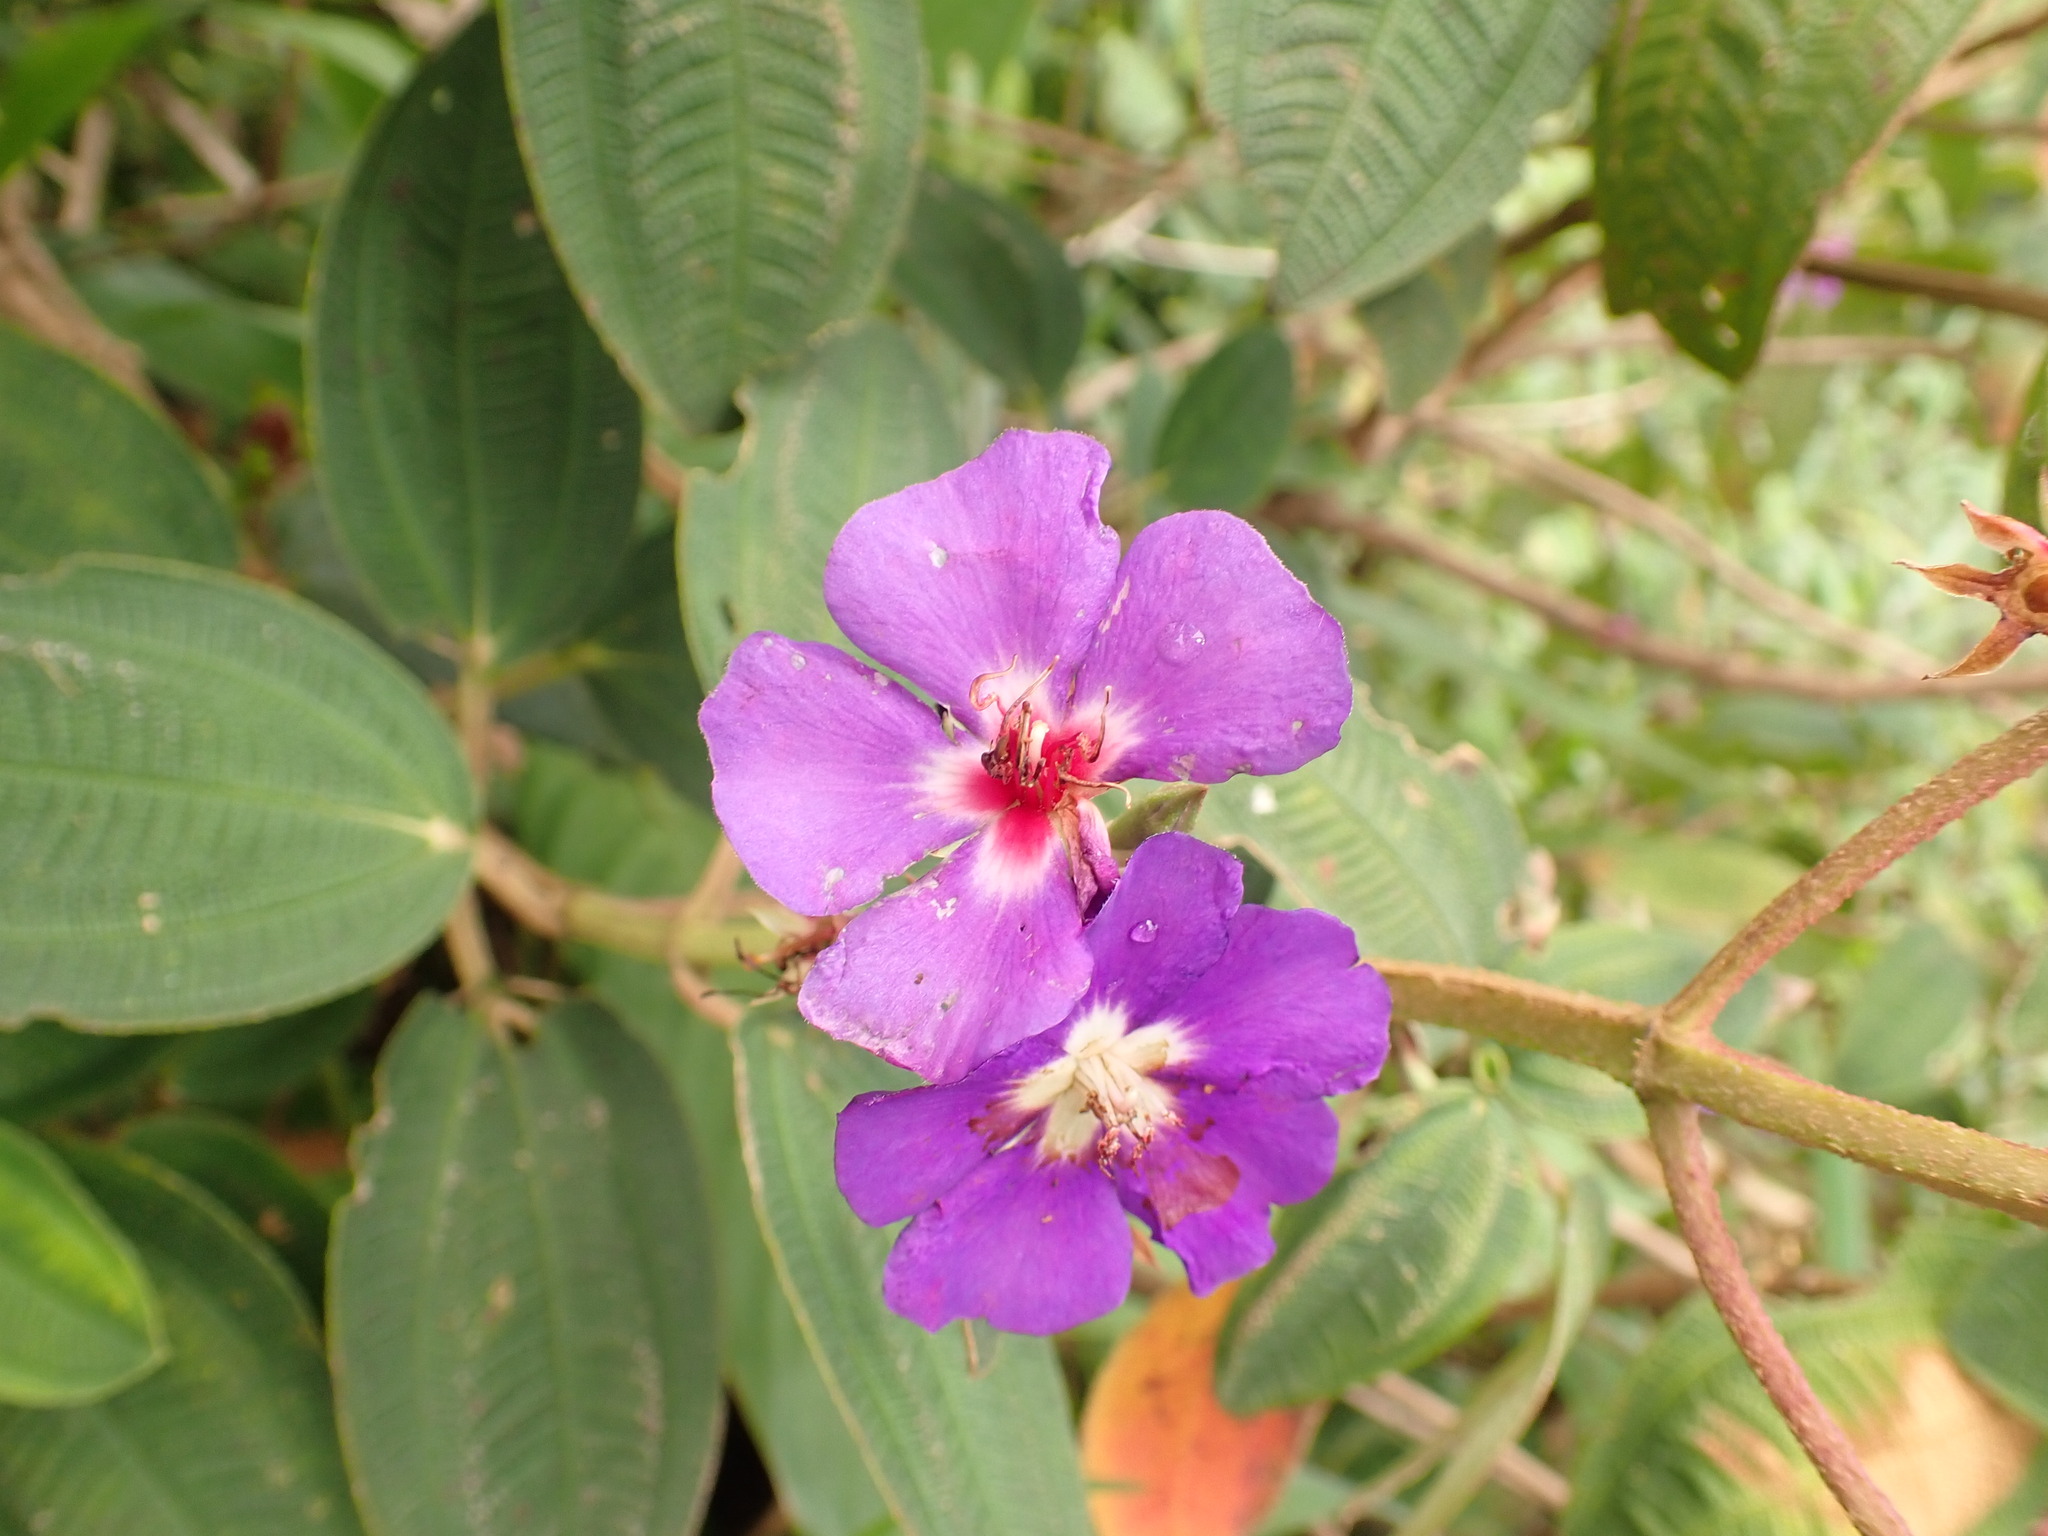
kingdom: Plantae
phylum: Tracheophyta
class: Magnoliopsida
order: Myrtales
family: Melastomataceae
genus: Pleroma
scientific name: Pleroma heteromallum
